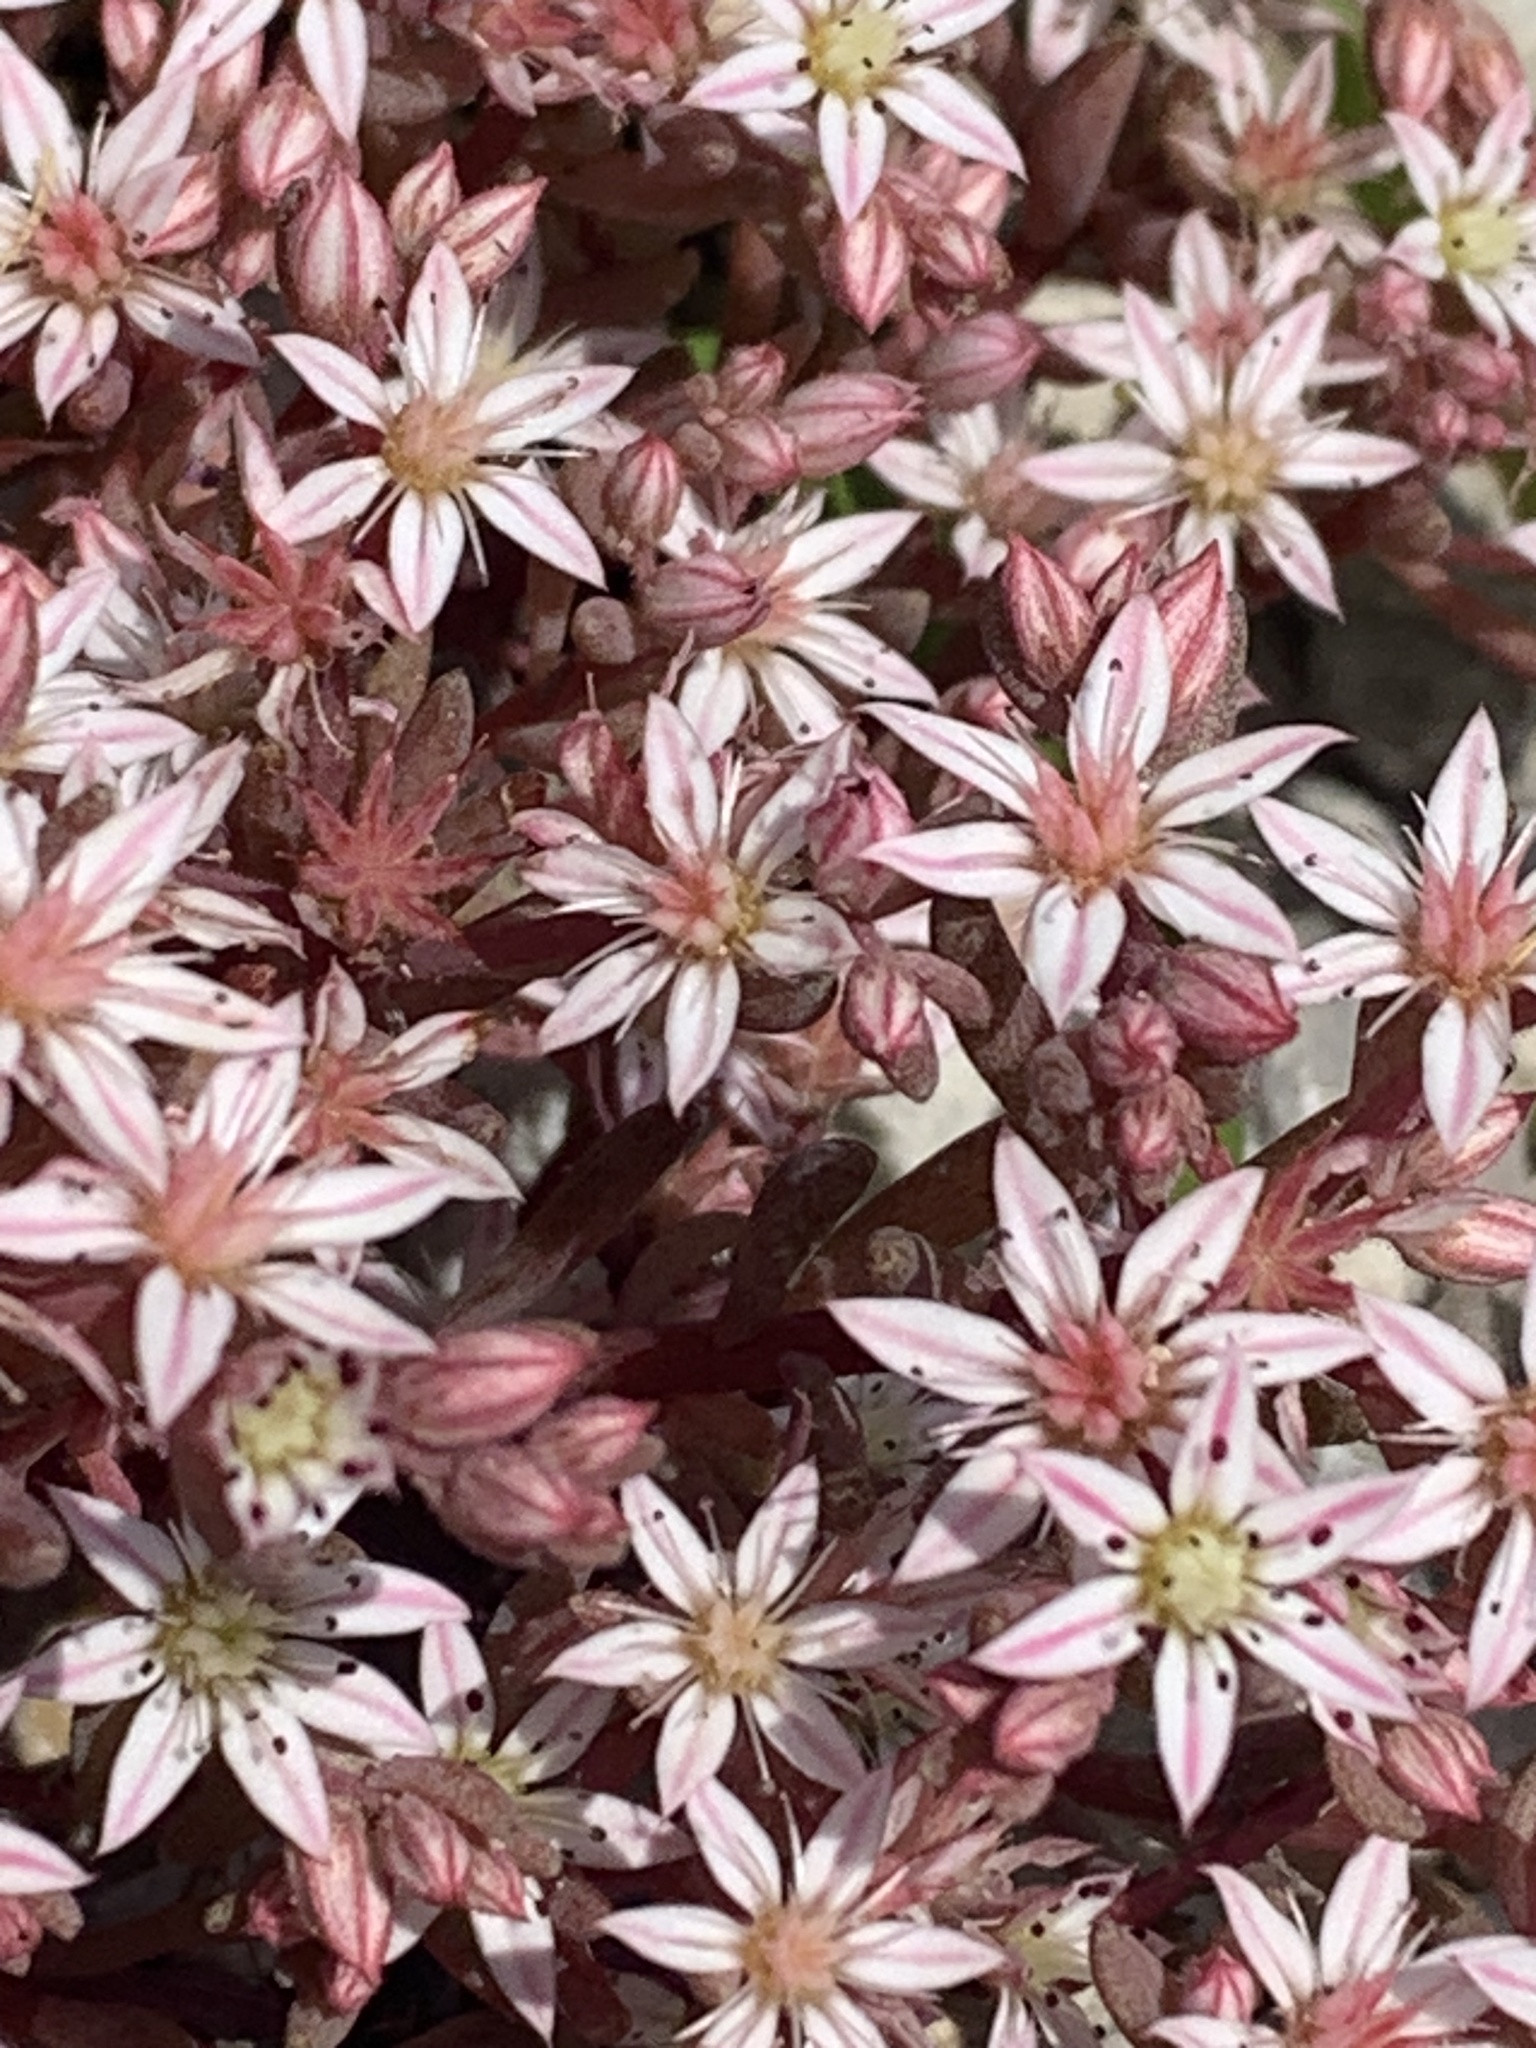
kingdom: Plantae
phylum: Tracheophyta
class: Magnoliopsida
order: Saxifragales
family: Crassulaceae
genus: Sedum
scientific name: Sedum hispanicum
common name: Spanish stonecrop
